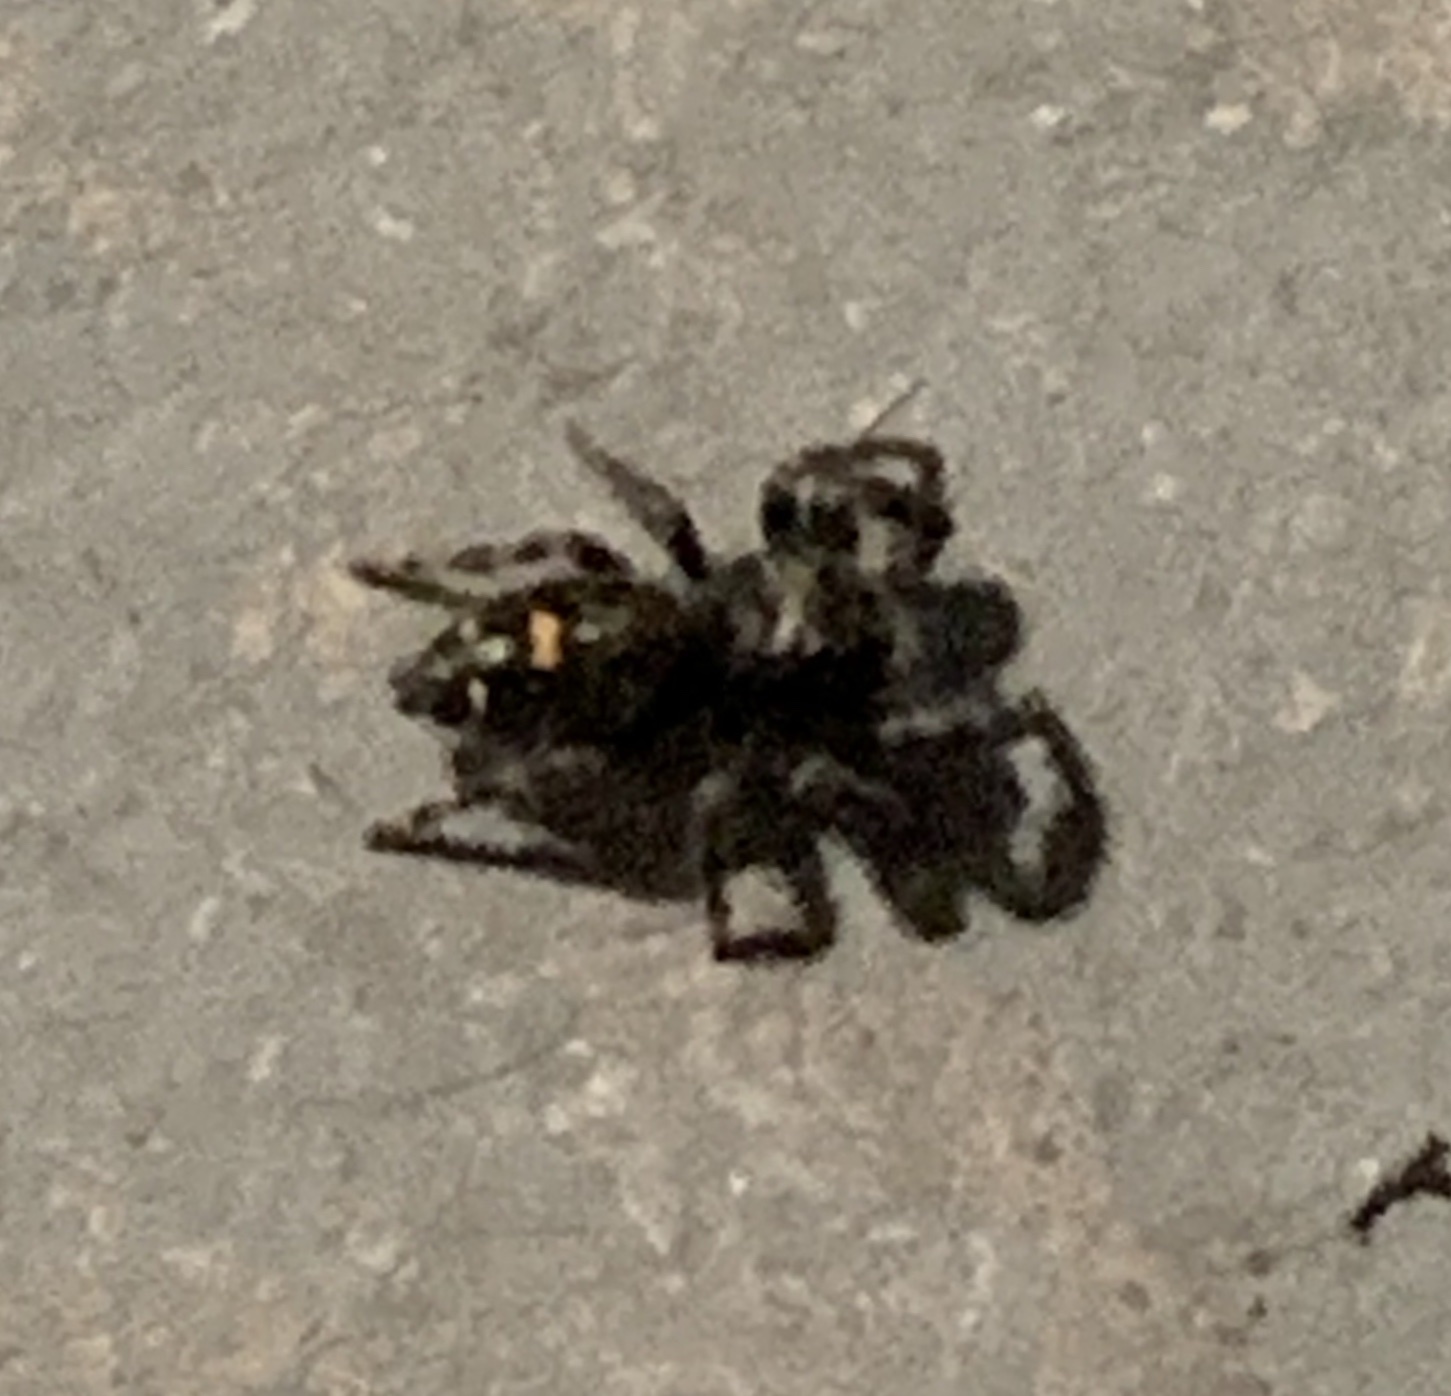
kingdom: Animalia
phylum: Arthropoda
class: Arachnida
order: Araneae
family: Salticidae
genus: Phidippus
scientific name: Phidippus audax
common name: Bold jumper
